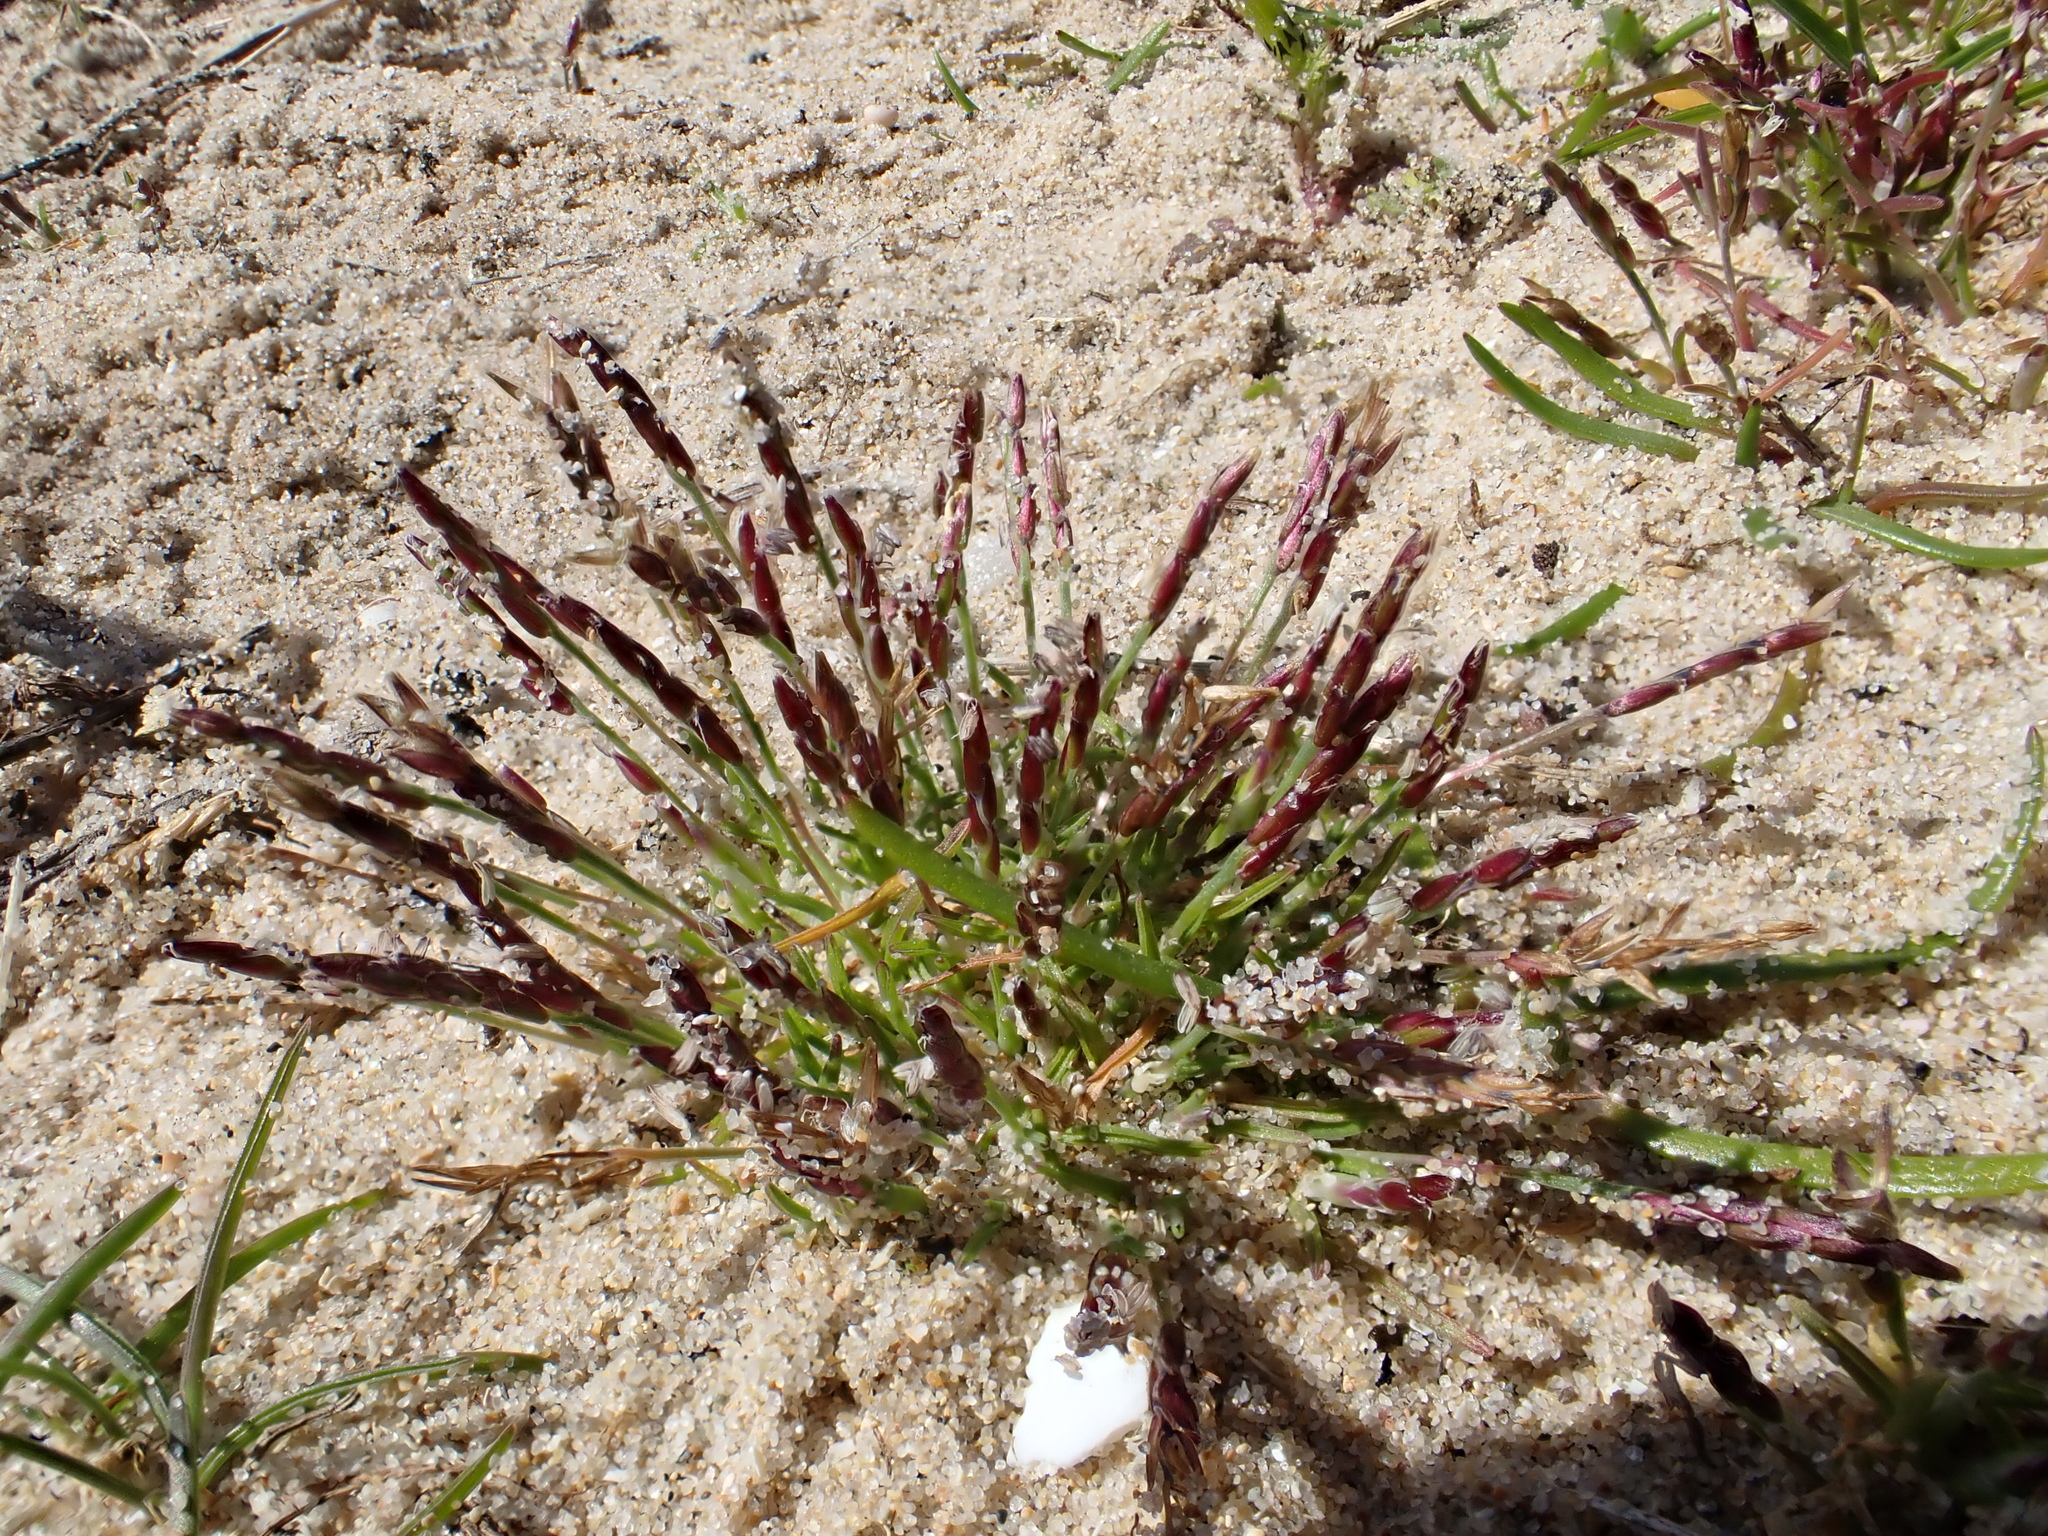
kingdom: Plantae
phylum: Tracheophyta
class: Liliopsida
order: Poales
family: Poaceae
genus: Mibora
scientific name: Mibora minima
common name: Early sand-grass
